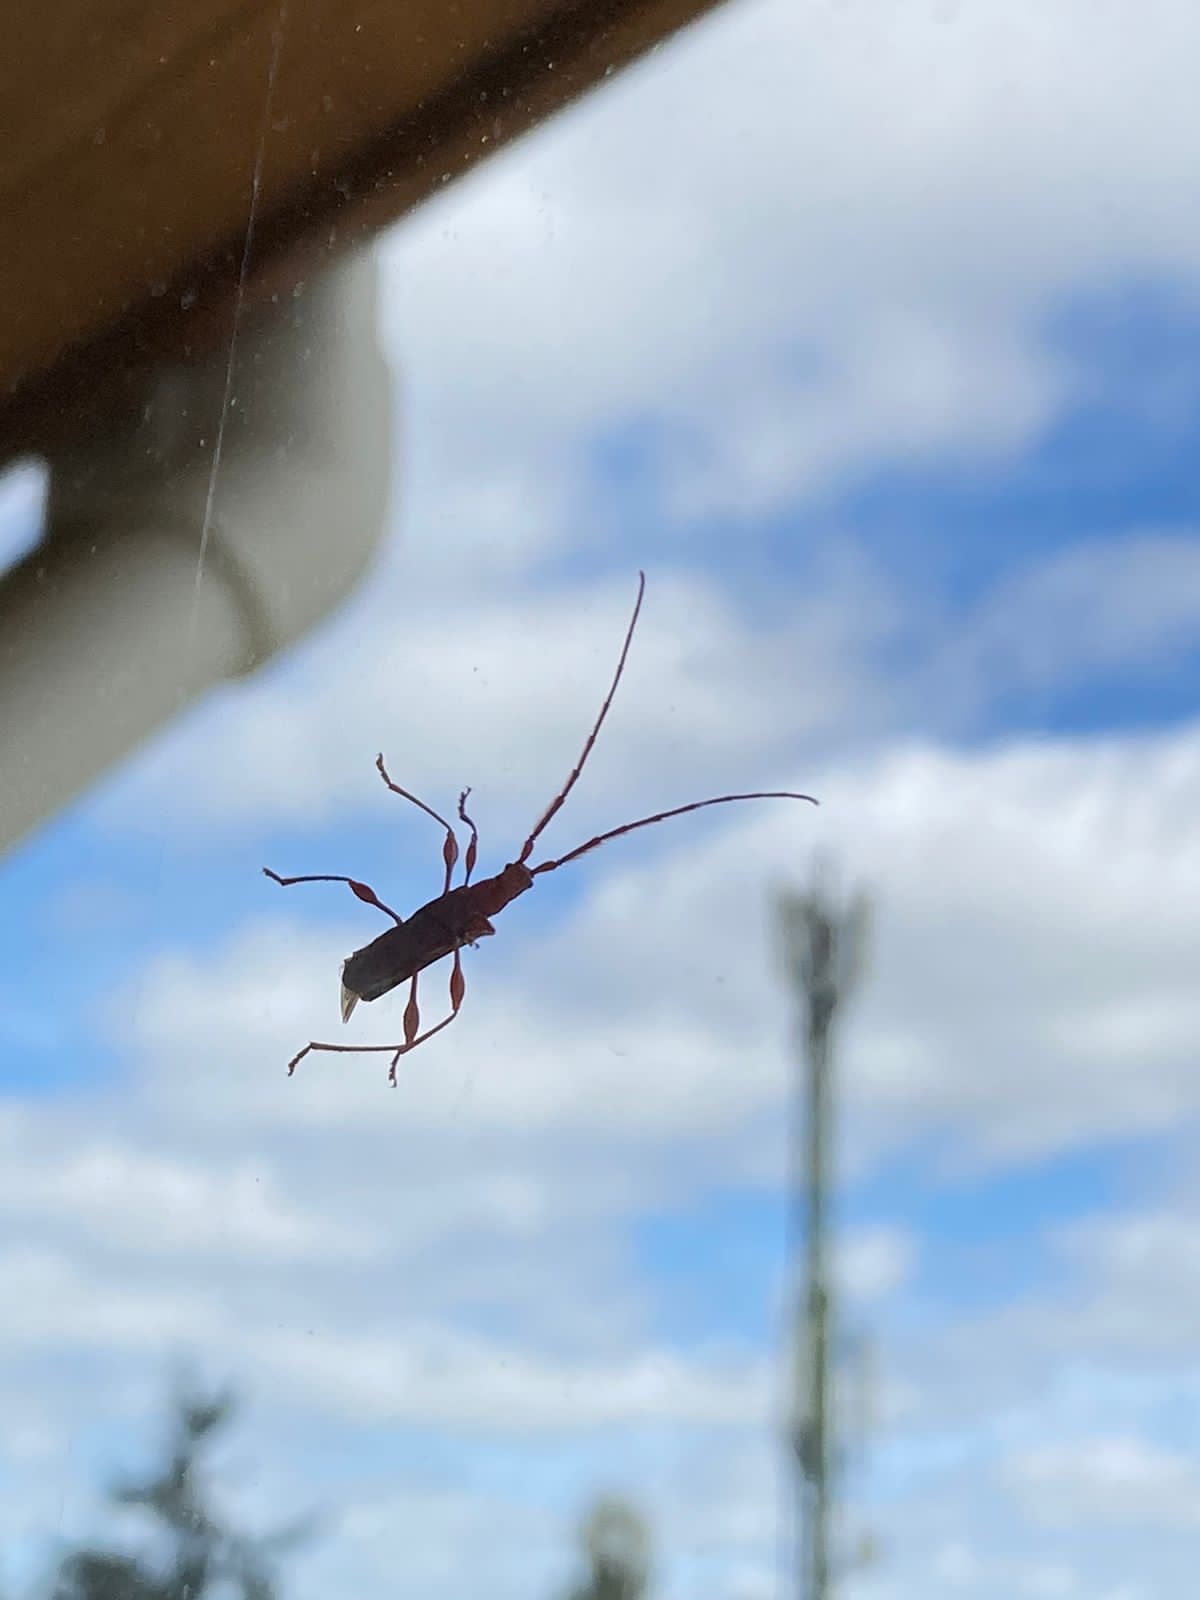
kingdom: Animalia
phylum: Arthropoda
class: Insecta
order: Coleoptera
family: Cerambycidae
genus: Chenoderus
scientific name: Chenoderus testaceus
